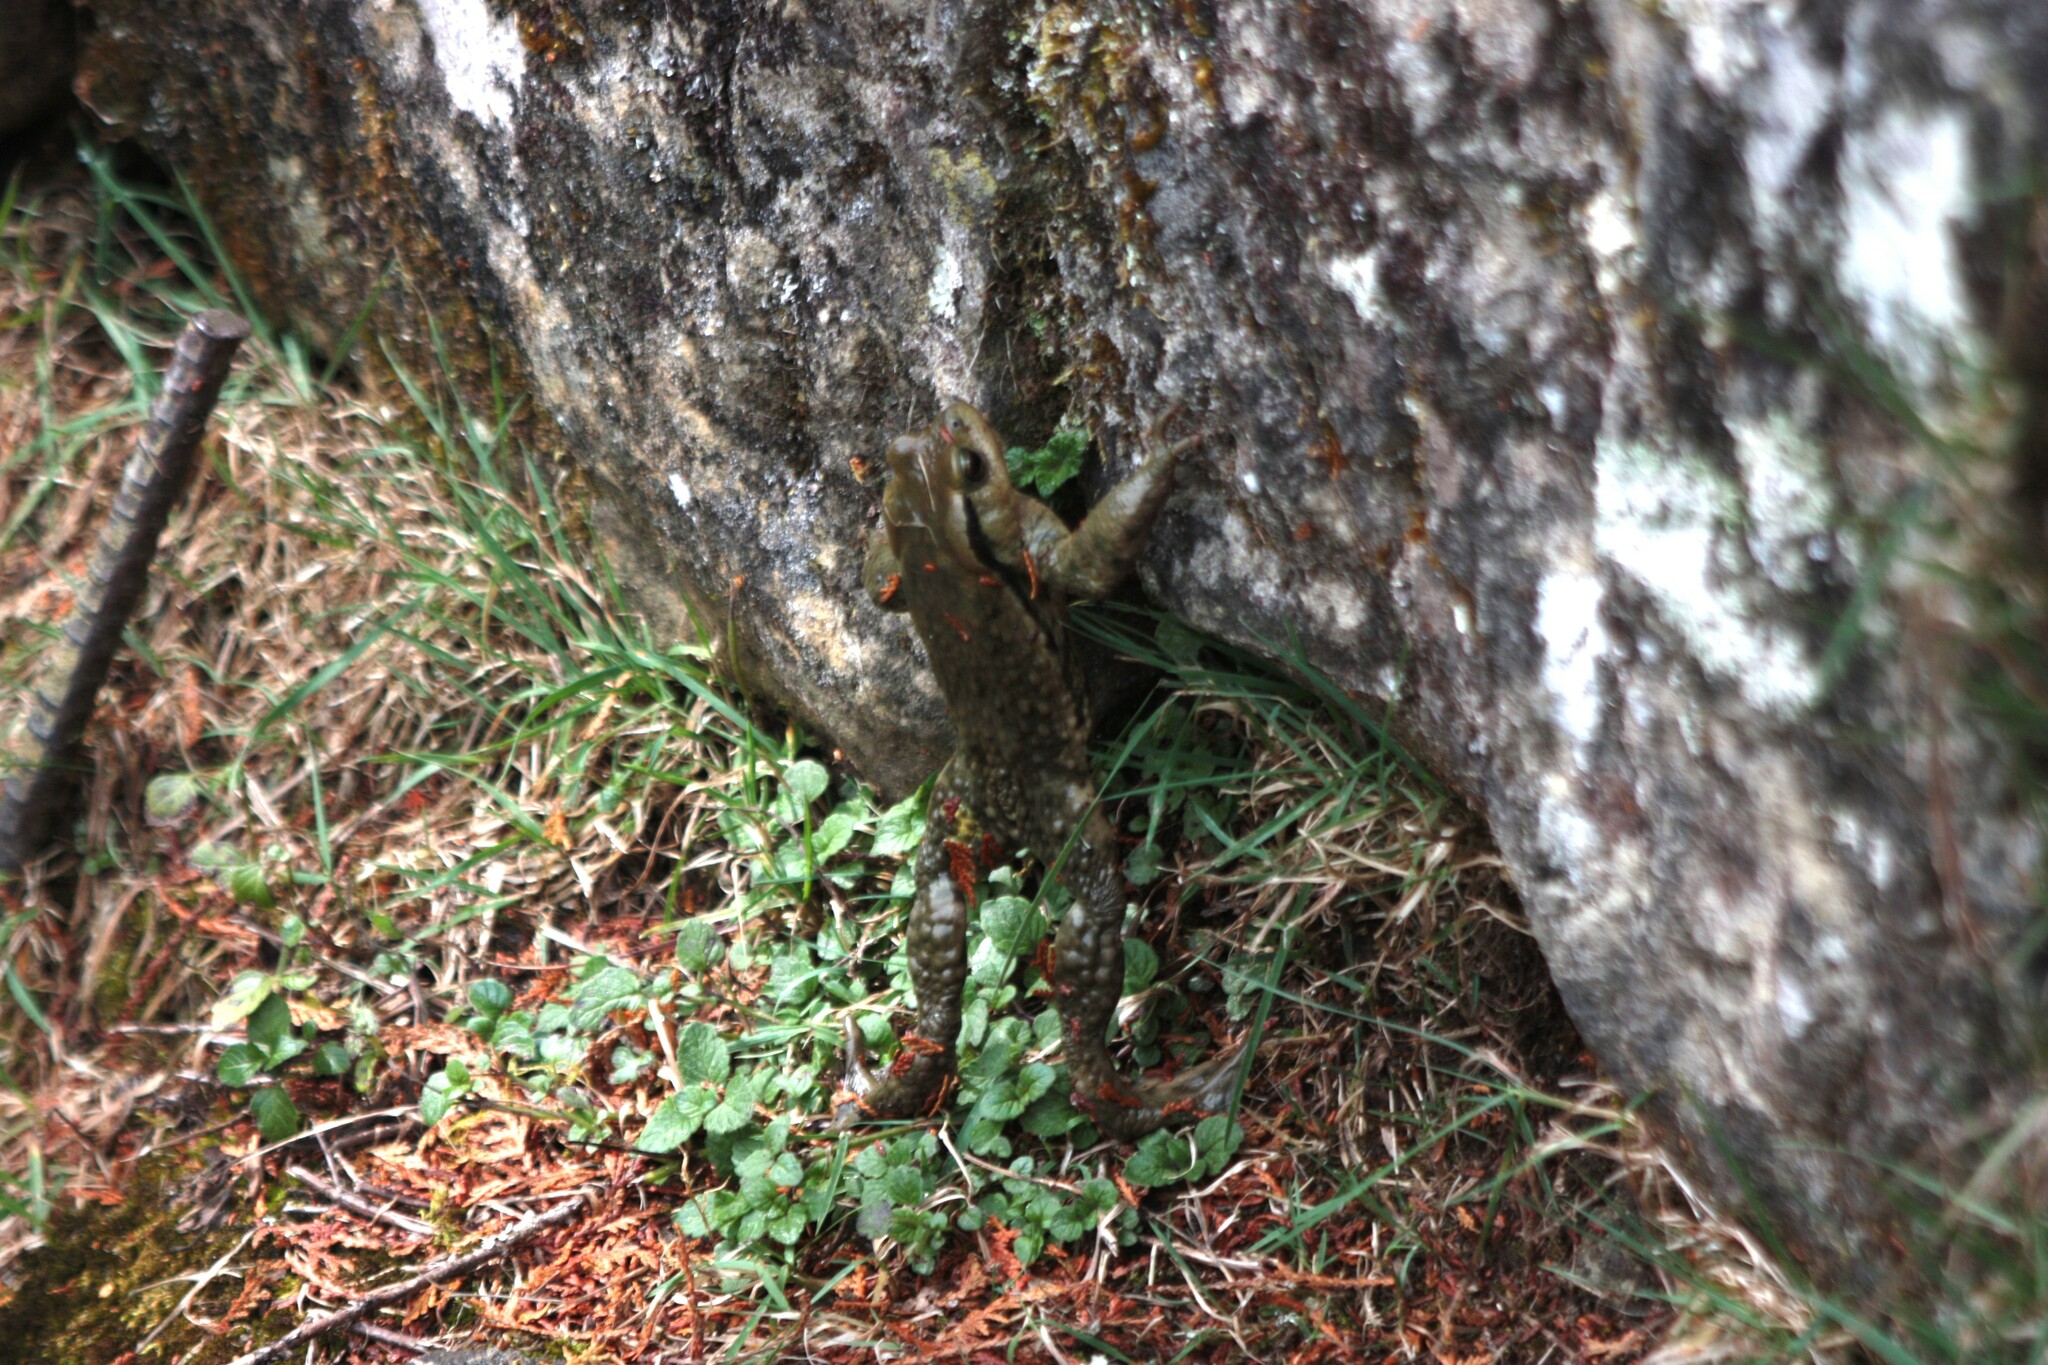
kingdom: Animalia
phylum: Chordata
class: Amphibia
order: Anura
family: Bufonidae
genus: Bufo
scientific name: Bufo bankorensis
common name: Bankor toad
